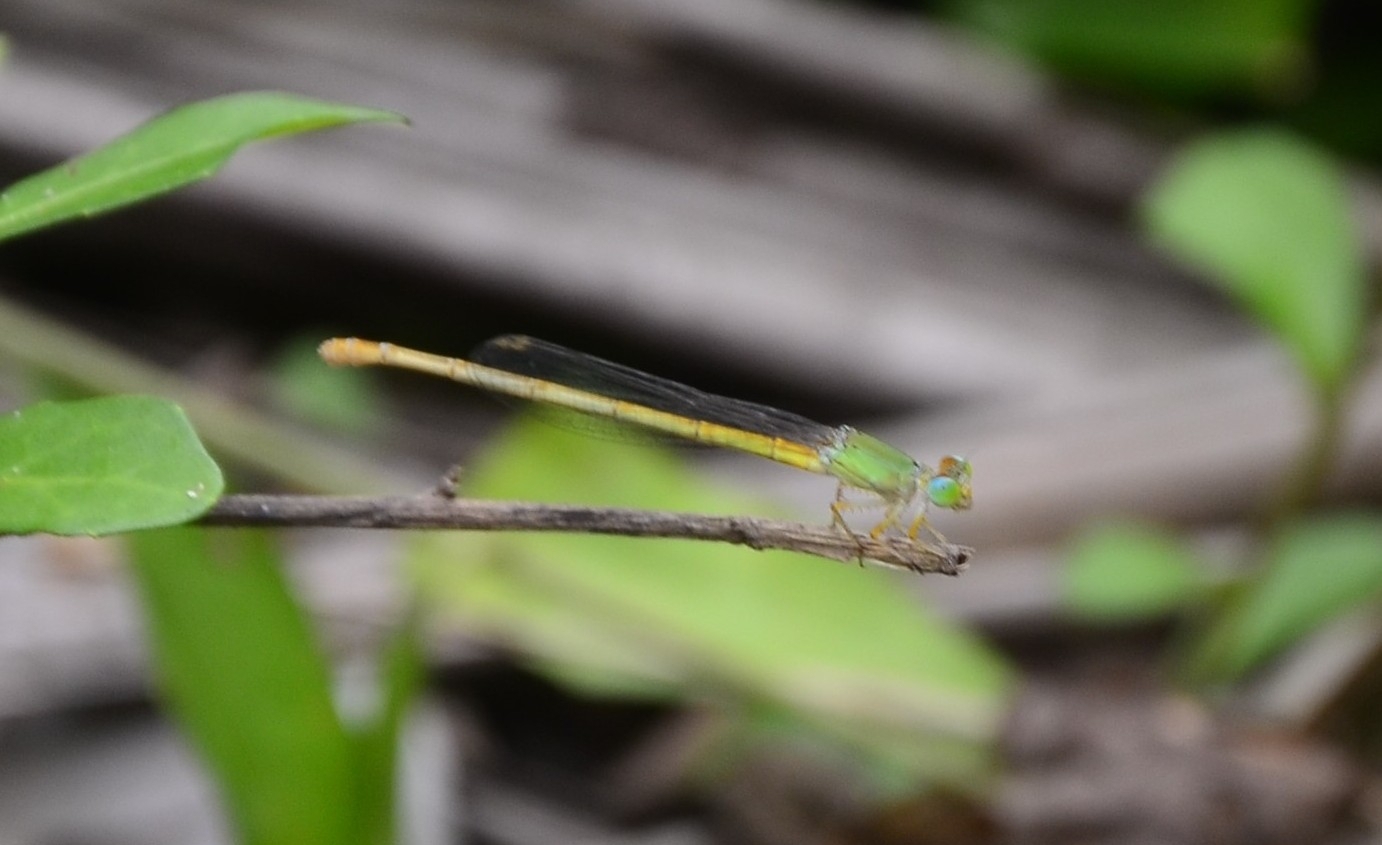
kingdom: Animalia
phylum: Arthropoda
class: Insecta
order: Odonata
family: Coenagrionidae
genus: Ceriagrion
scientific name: Ceriagrion coromandelianum
